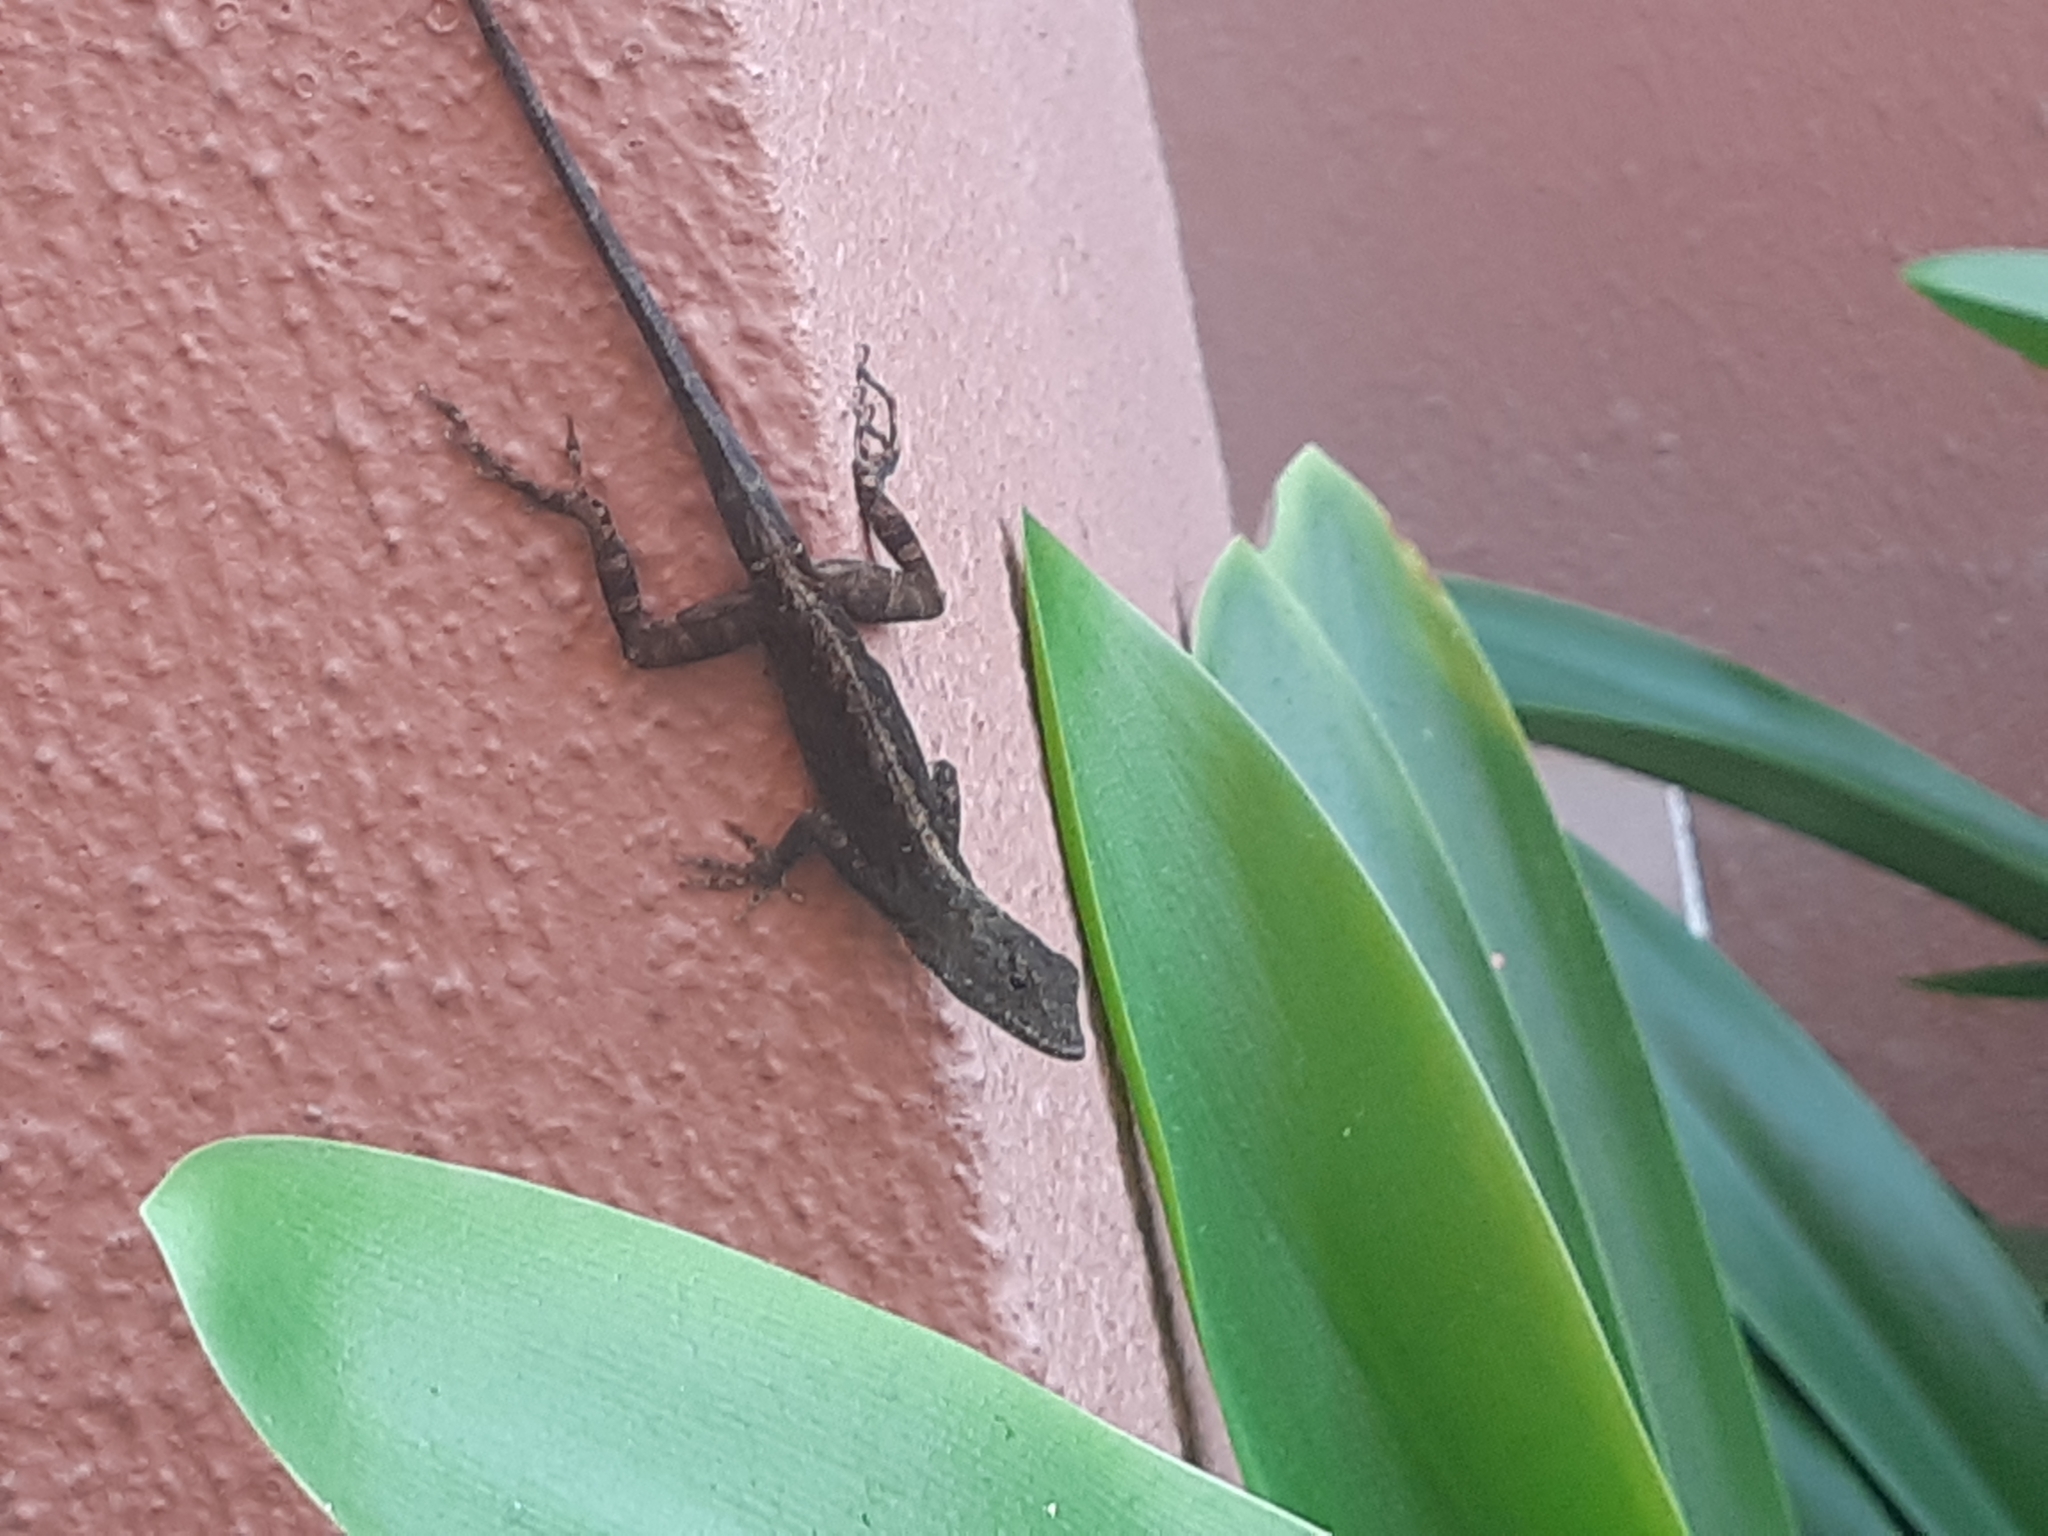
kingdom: Animalia
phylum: Chordata
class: Squamata
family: Dactyloidae
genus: Anolis
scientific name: Anolis sagrei
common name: Brown anole
